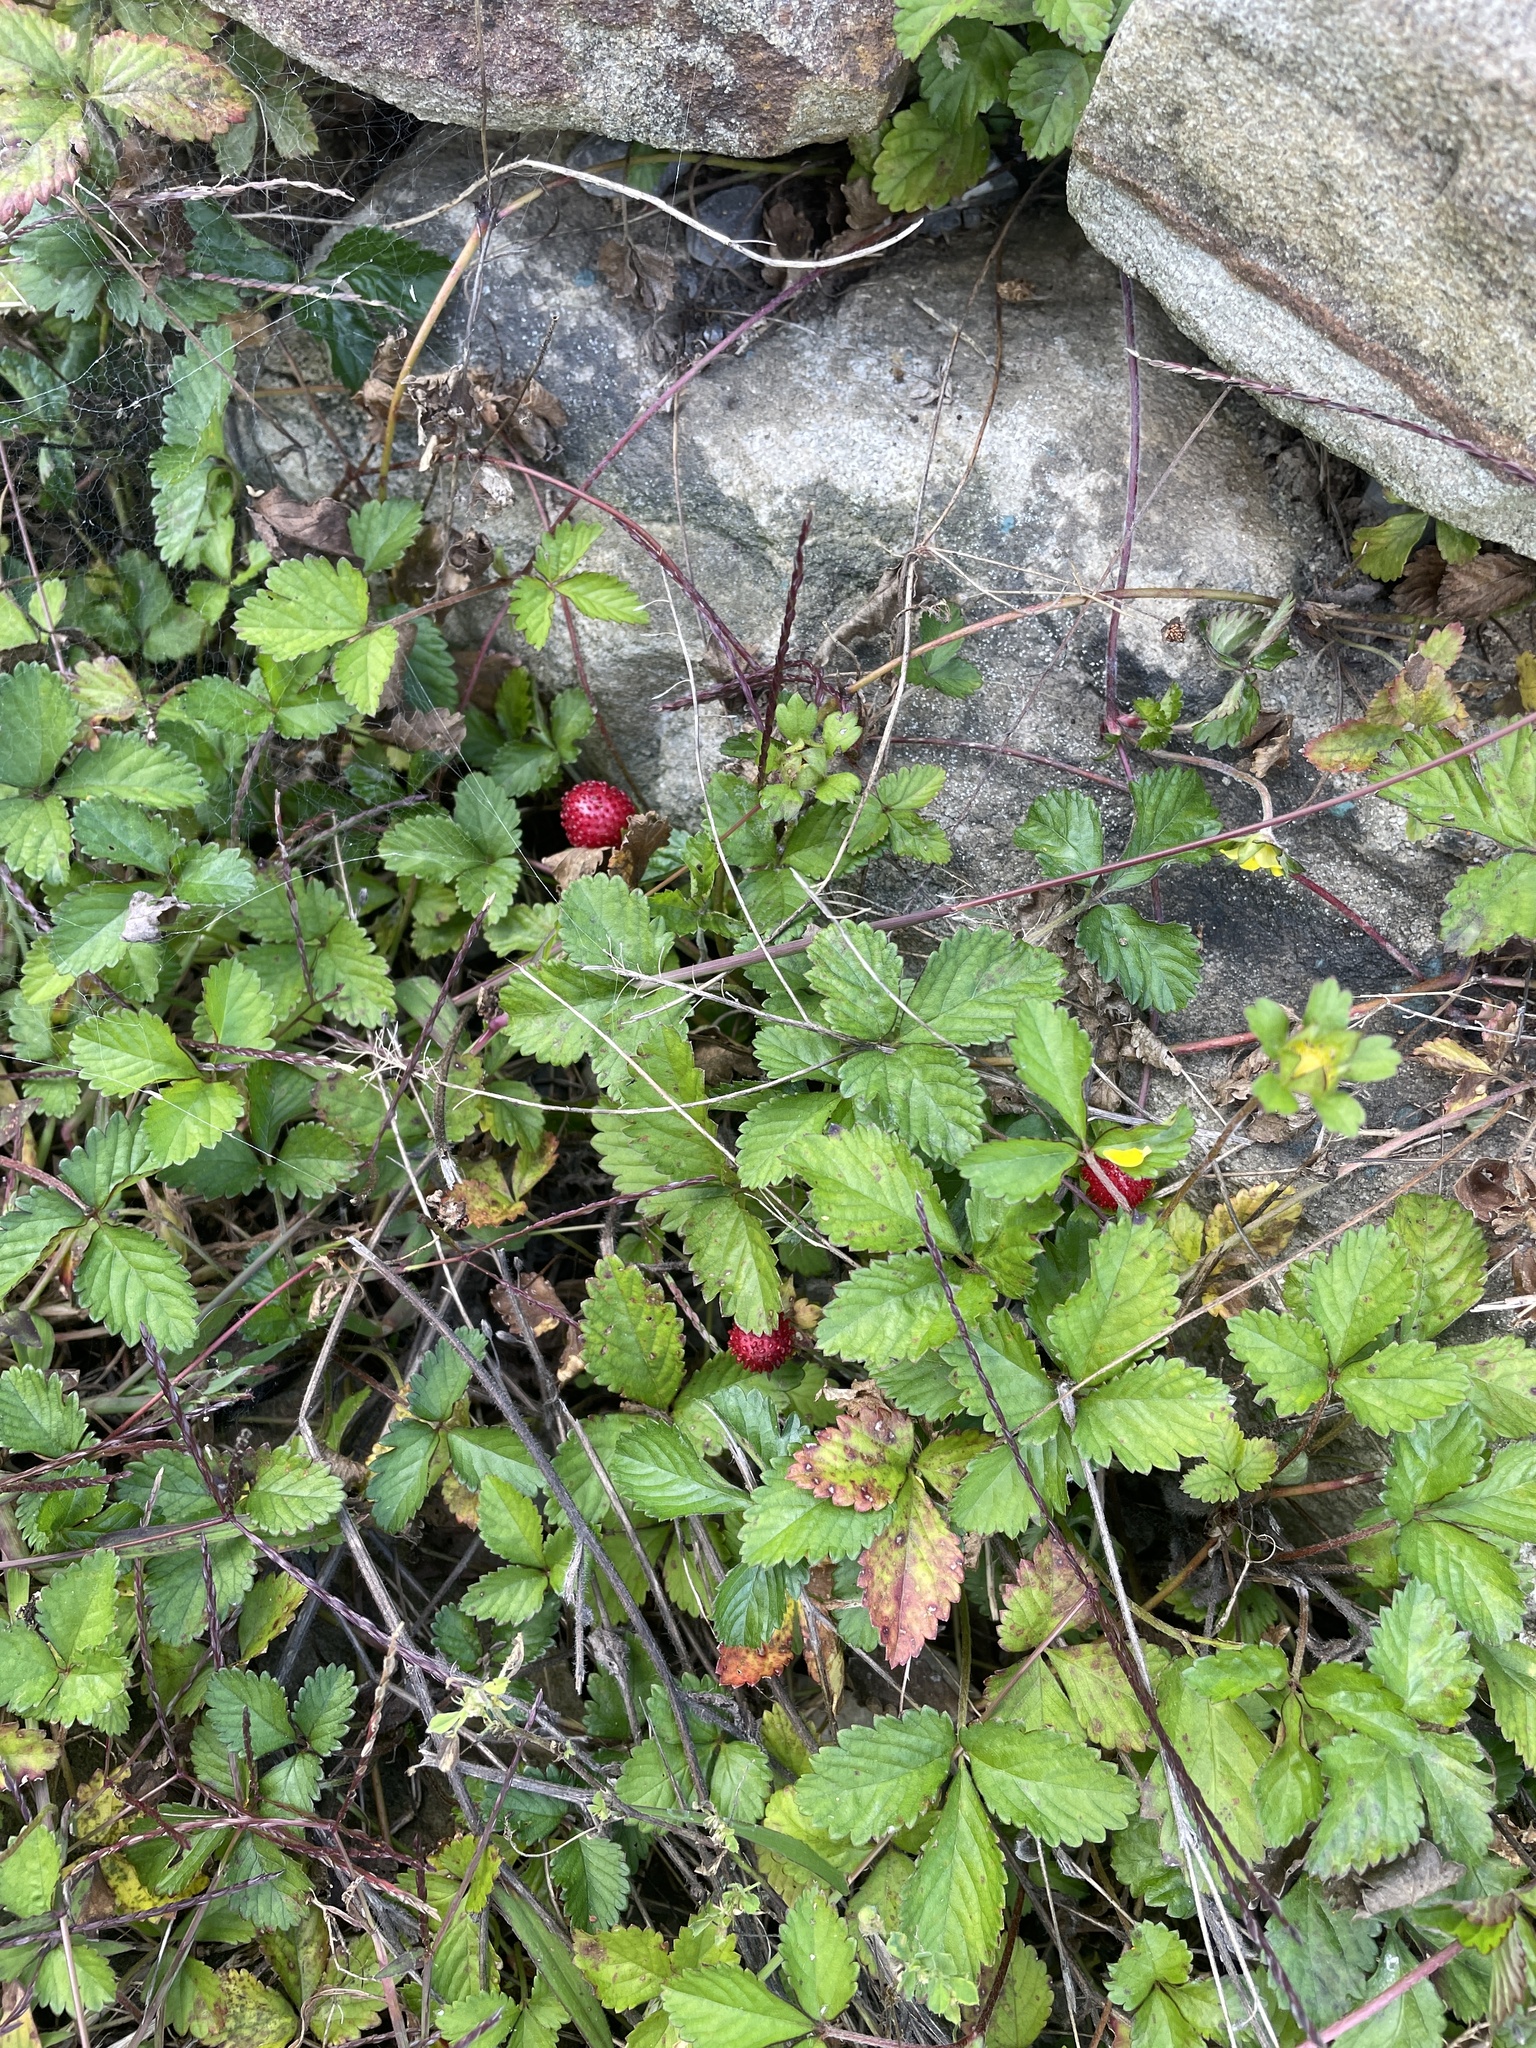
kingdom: Plantae
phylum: Tracheophyta
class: Magnoliopsida
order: Rosales
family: Rosaceae
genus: Potentilla
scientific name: Potentilla indica
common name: Yellow-flowered strawberry
